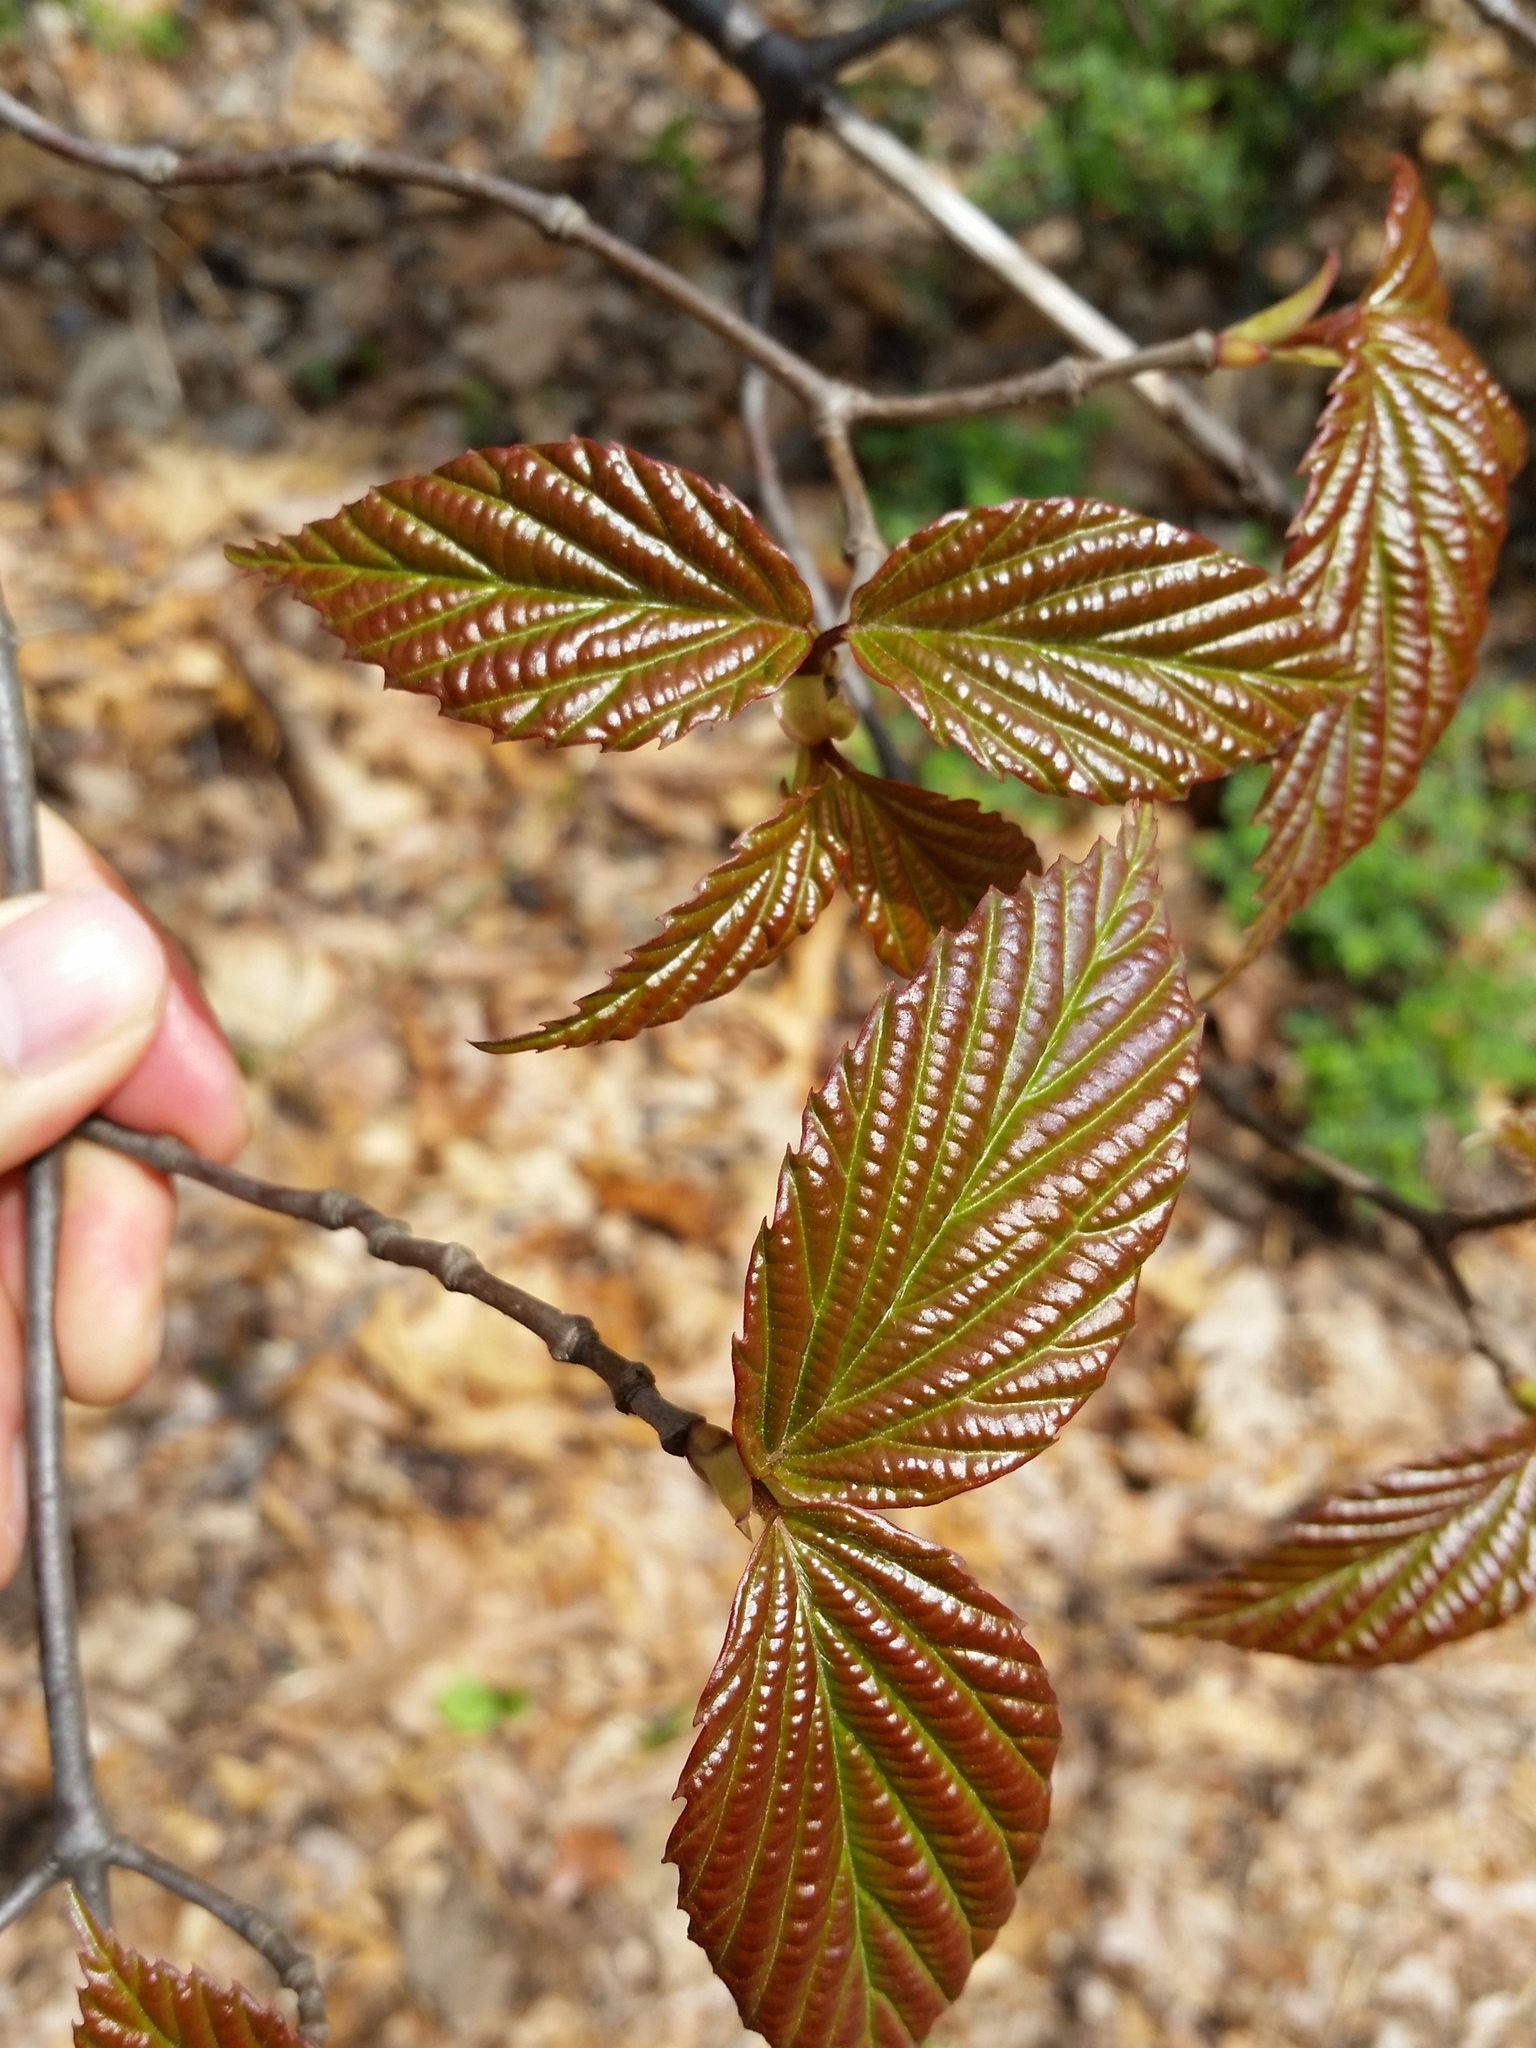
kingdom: Plantae
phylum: Tracheophyta
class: Magnoliopsida
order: Dipsacales
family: Viburnaceae
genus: Viburnum
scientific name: Viburnum setigerum
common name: Tea viburnum
